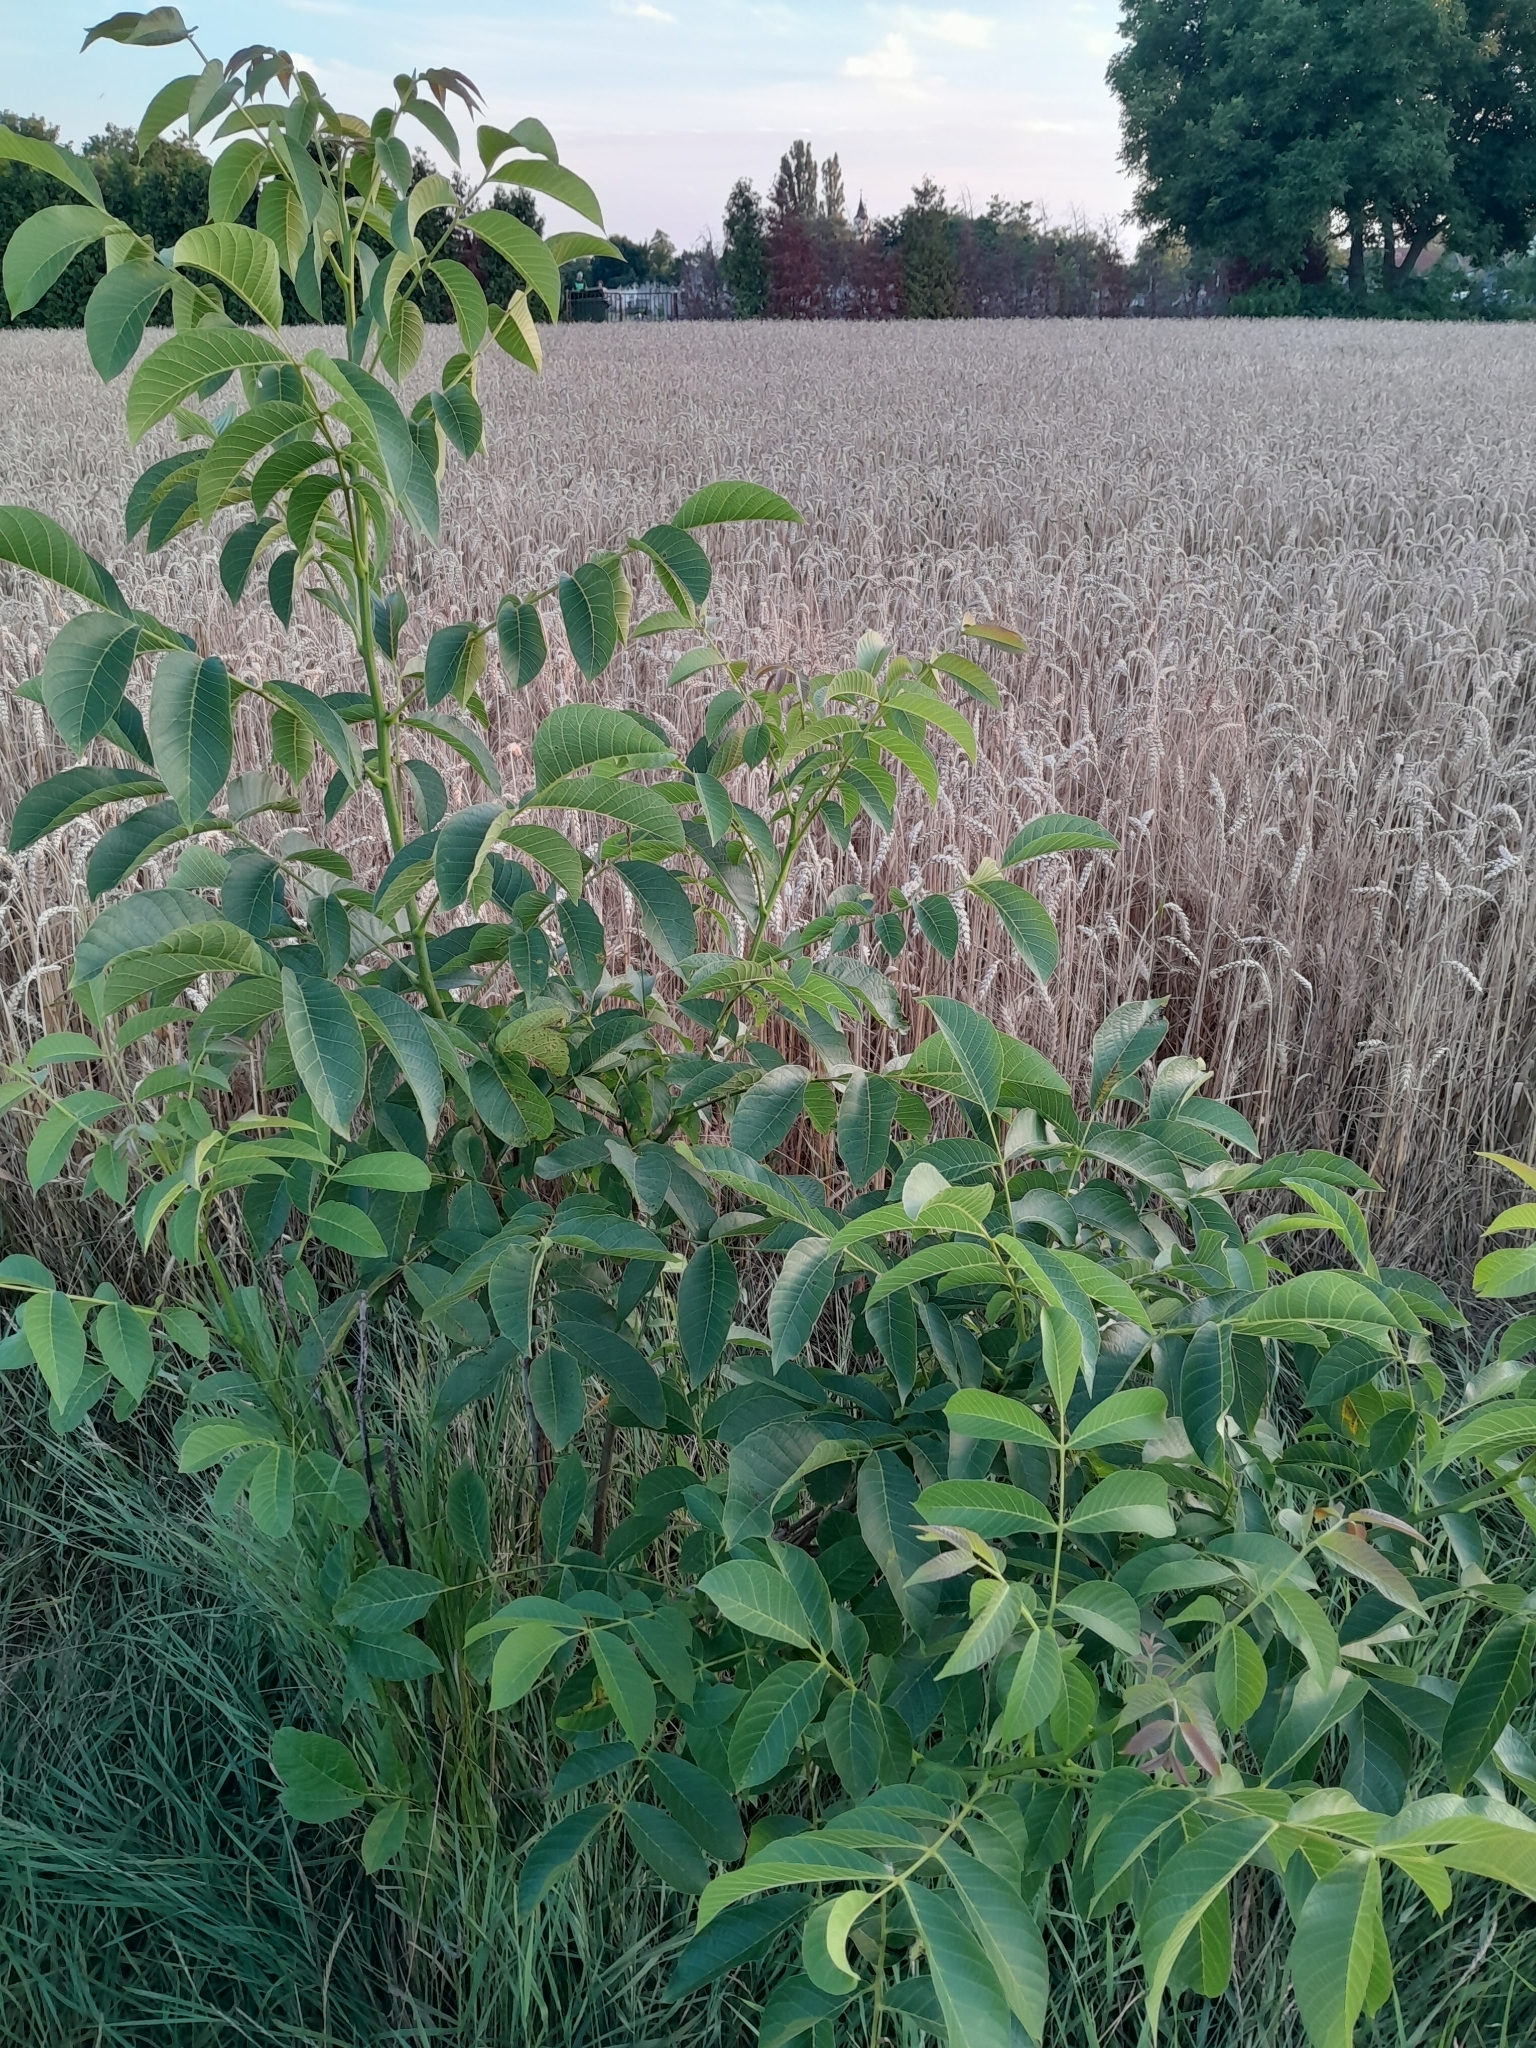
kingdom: Plantae
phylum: Tracheophyta
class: Magnoliopsida
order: Fagales
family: Juglandaceae
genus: Juglans
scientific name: Juglans regia
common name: Walnut
